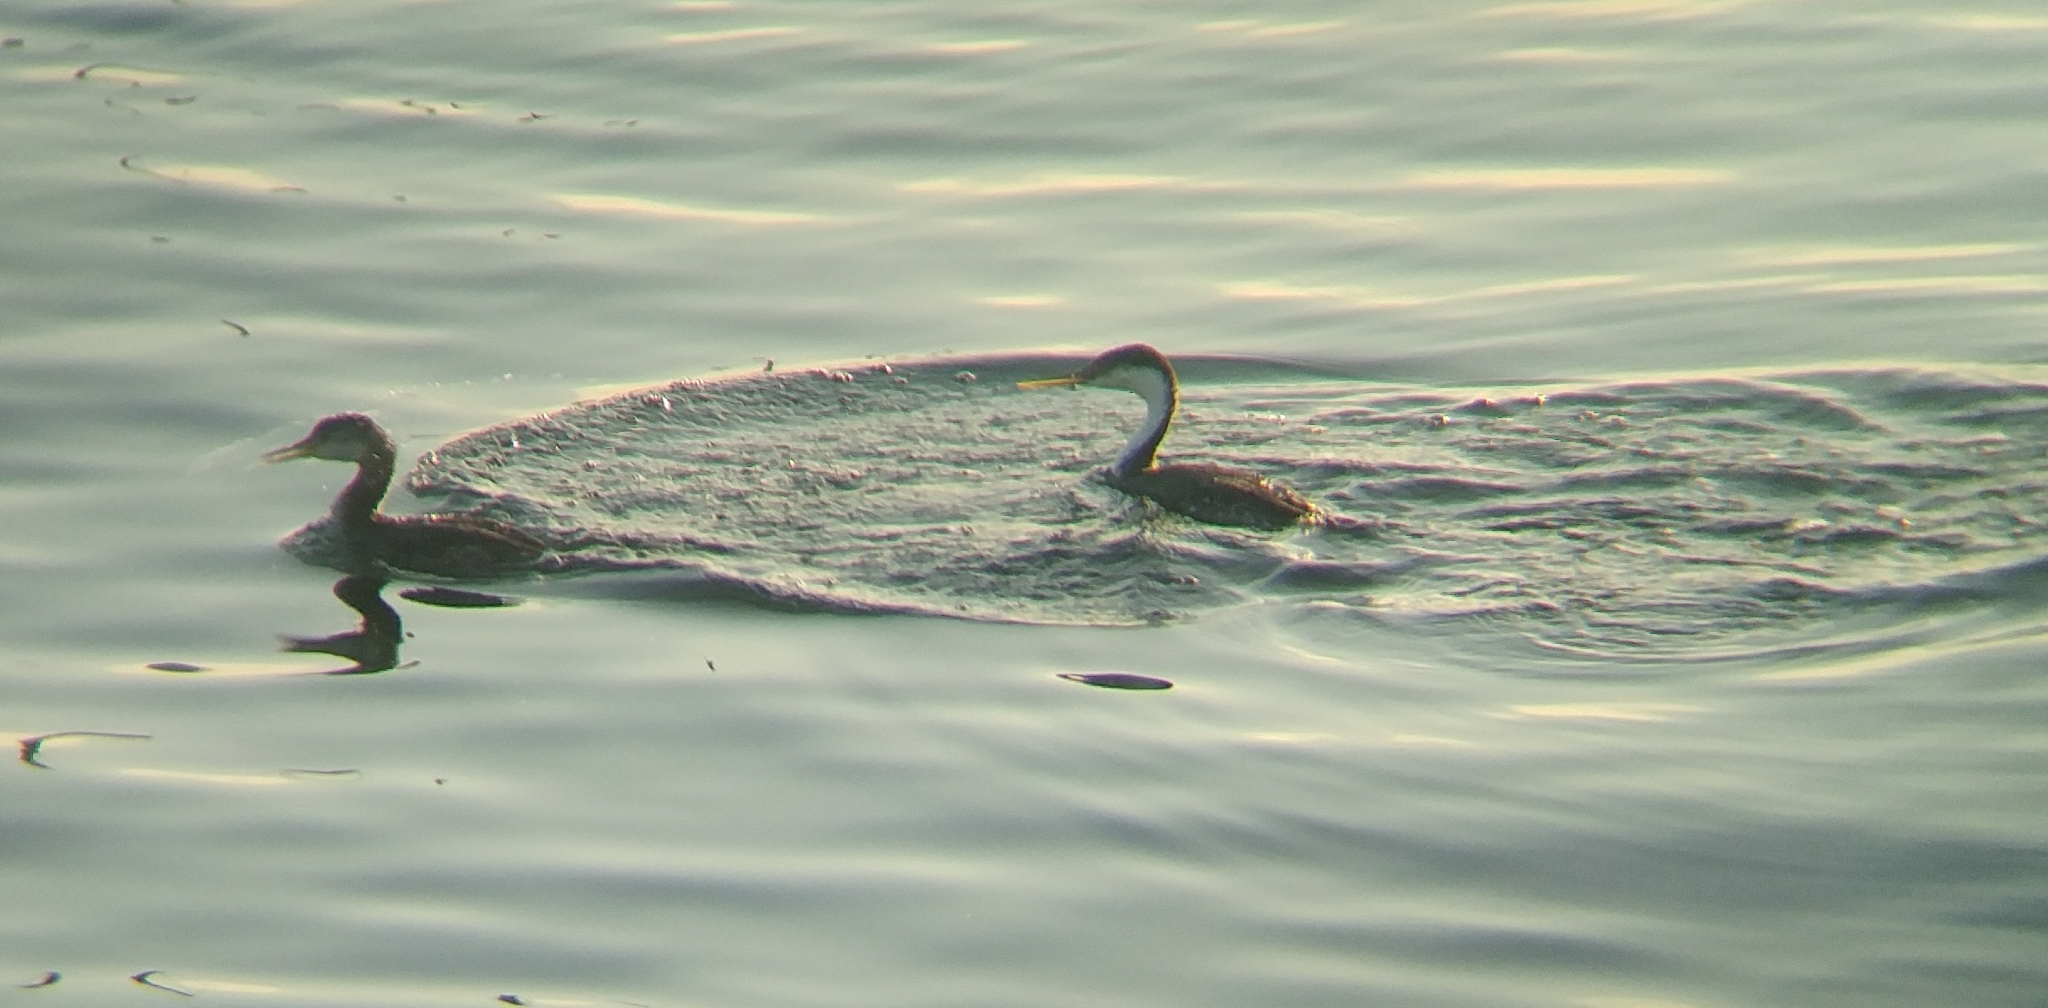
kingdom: Animalia
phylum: Chordata
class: Aves
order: Podicipediformes
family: Podicipedidae
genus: Podiceps
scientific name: Podiceps grisegena
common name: Red-necked grebe
